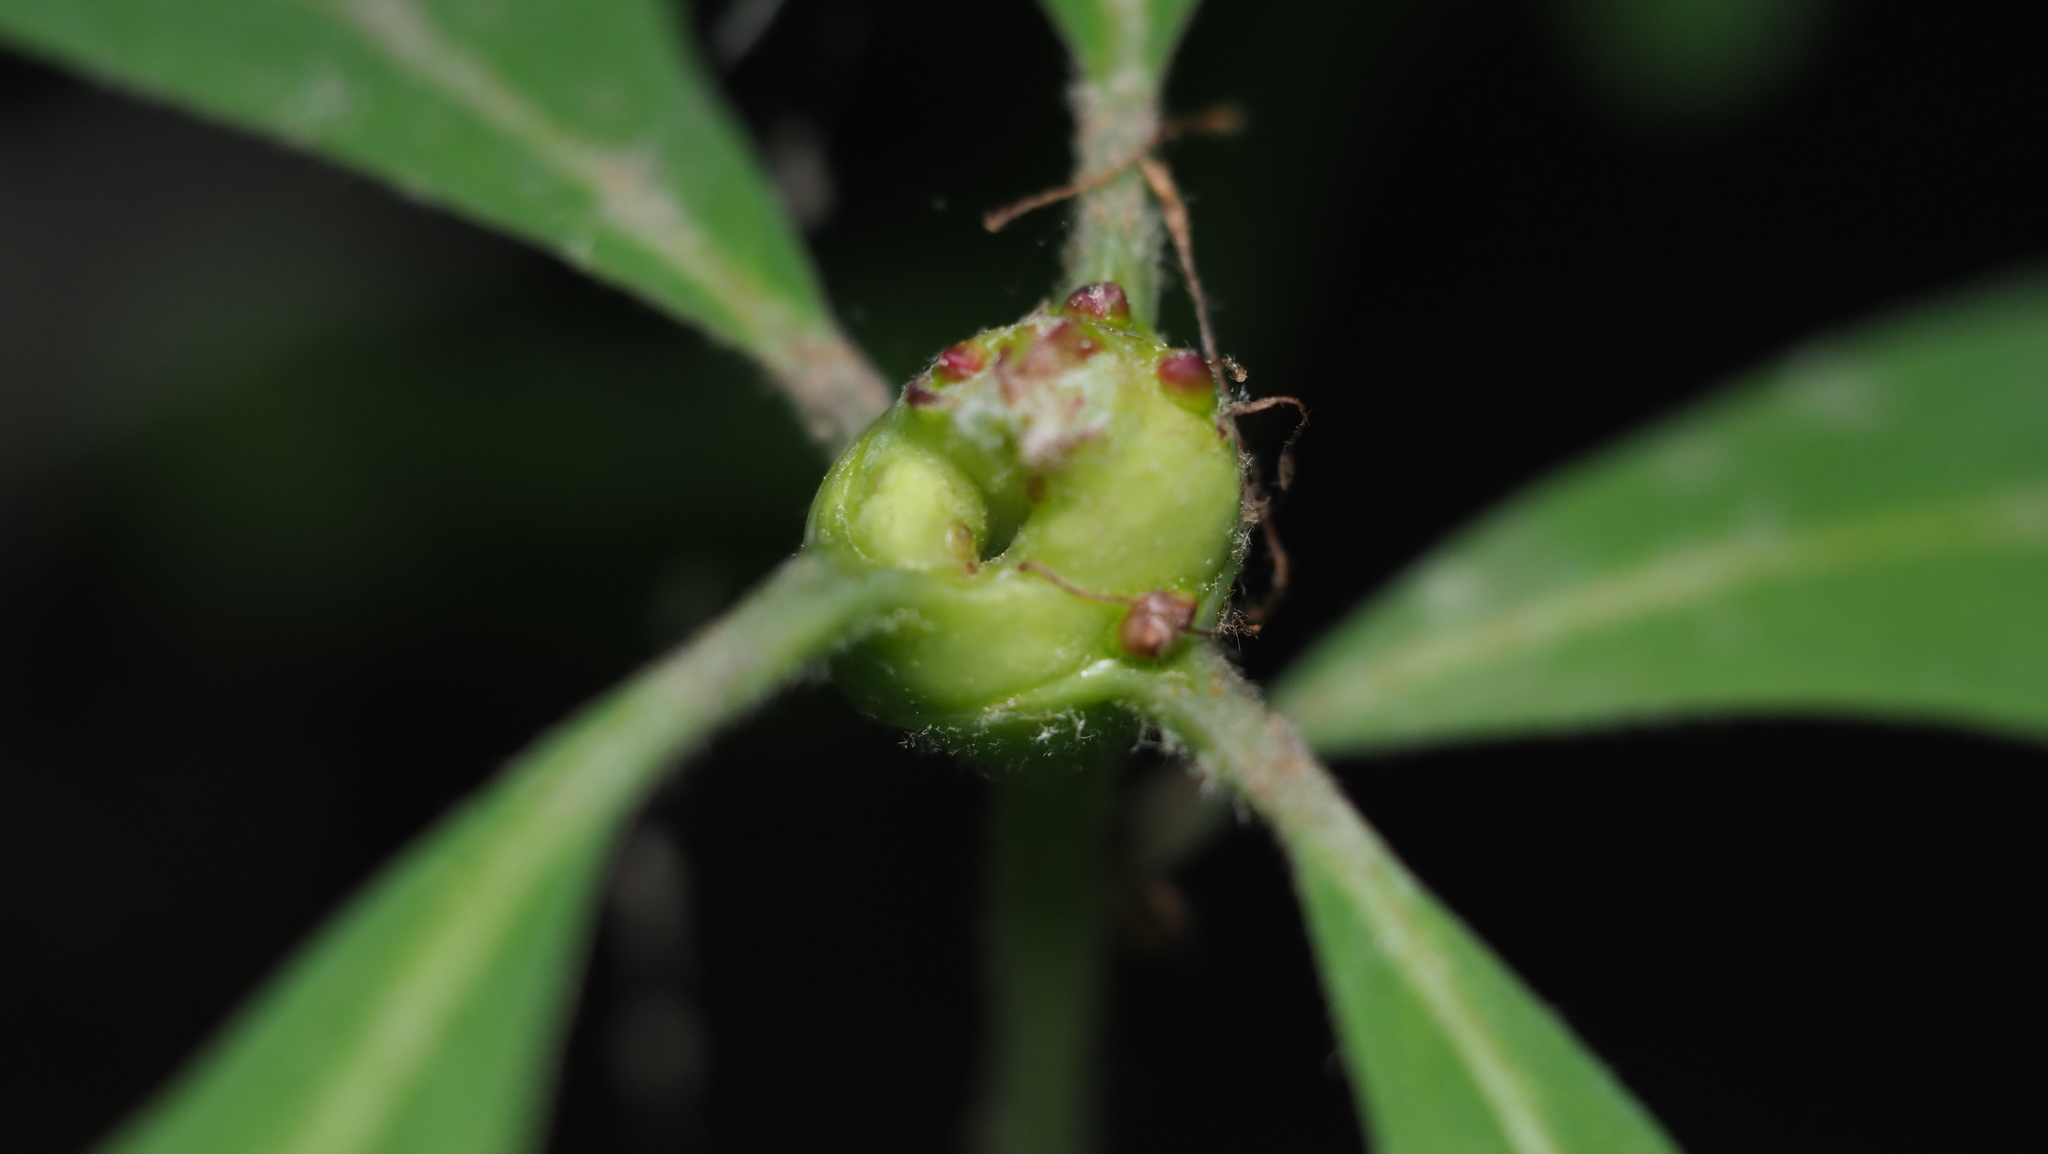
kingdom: Animalia
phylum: Arthropoda
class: Insecta
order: Hymenoptera
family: Cynipidae
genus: Callirhytis
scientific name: Callirhytis clavula
